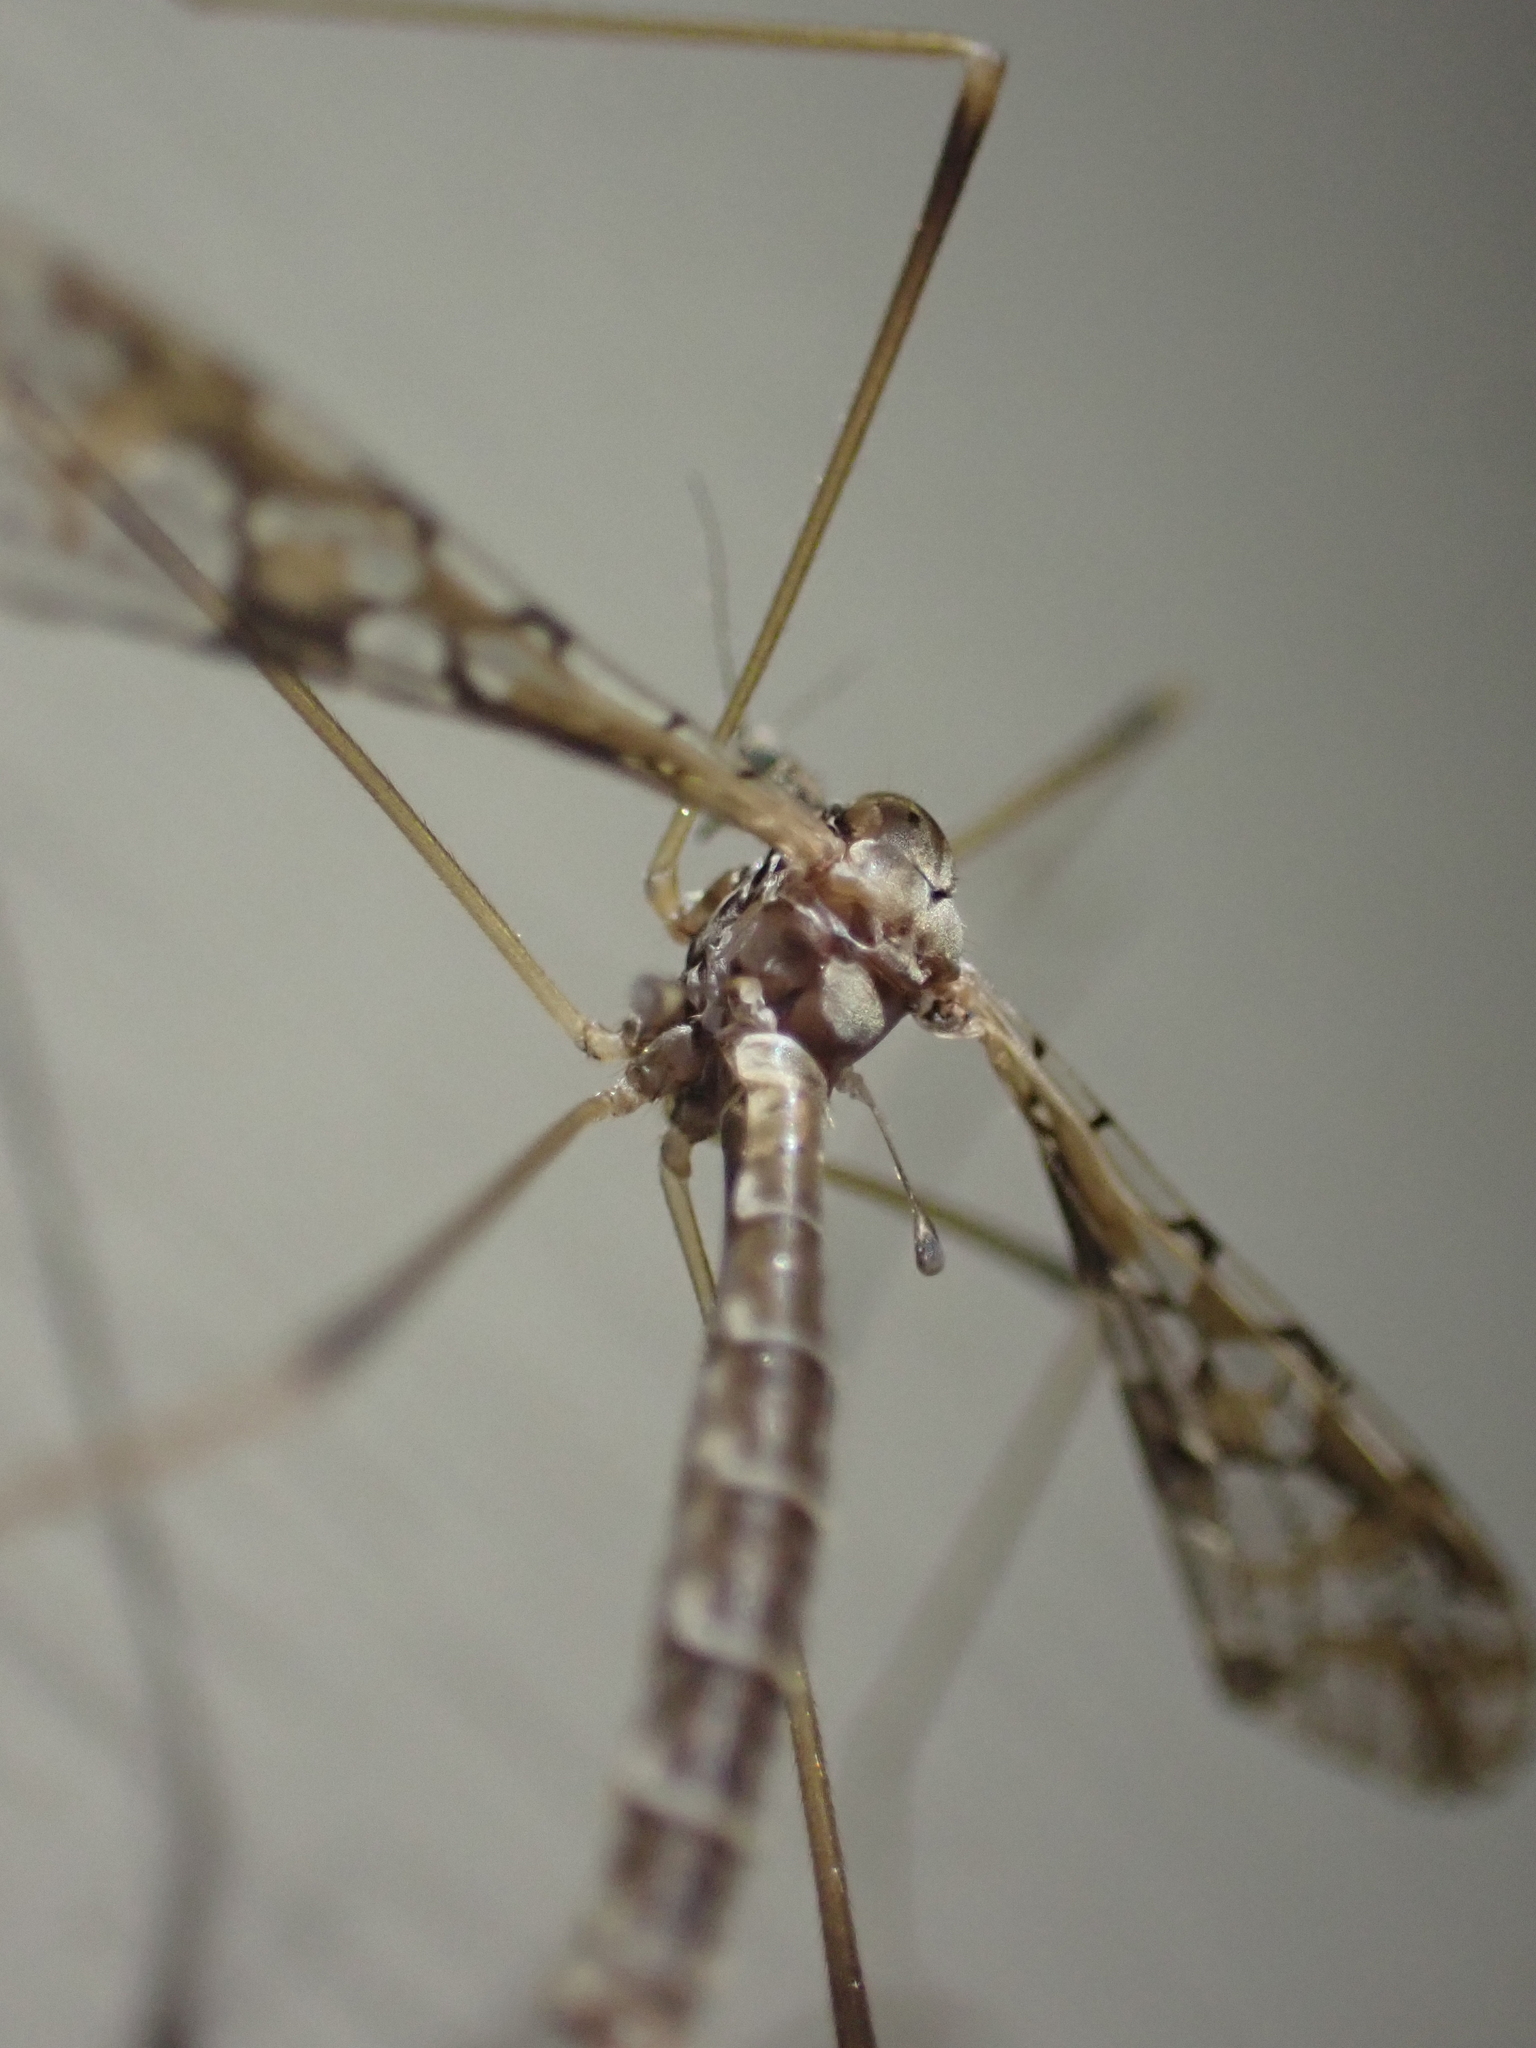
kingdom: Animalia
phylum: Arthropoda
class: Insecta
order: Diptera
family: Limoniidae
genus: Epiphragma
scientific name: Epiphragma solatrix
